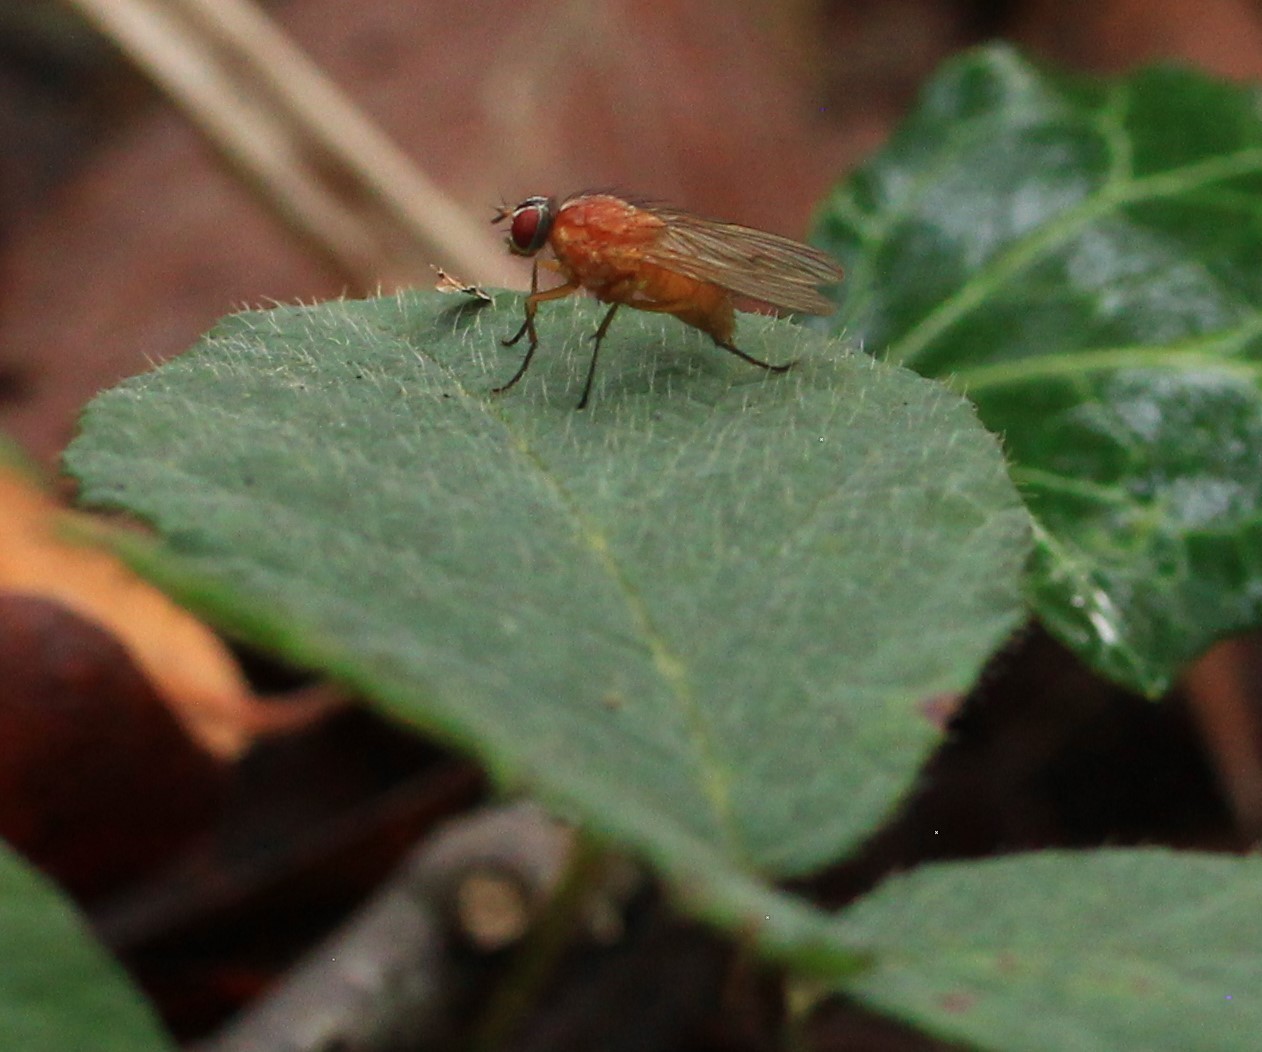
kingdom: Animalia
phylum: Arthropoda
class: Insecta
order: Diptera
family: Muscidae
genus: Thricops
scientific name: Thricops diaphanus
